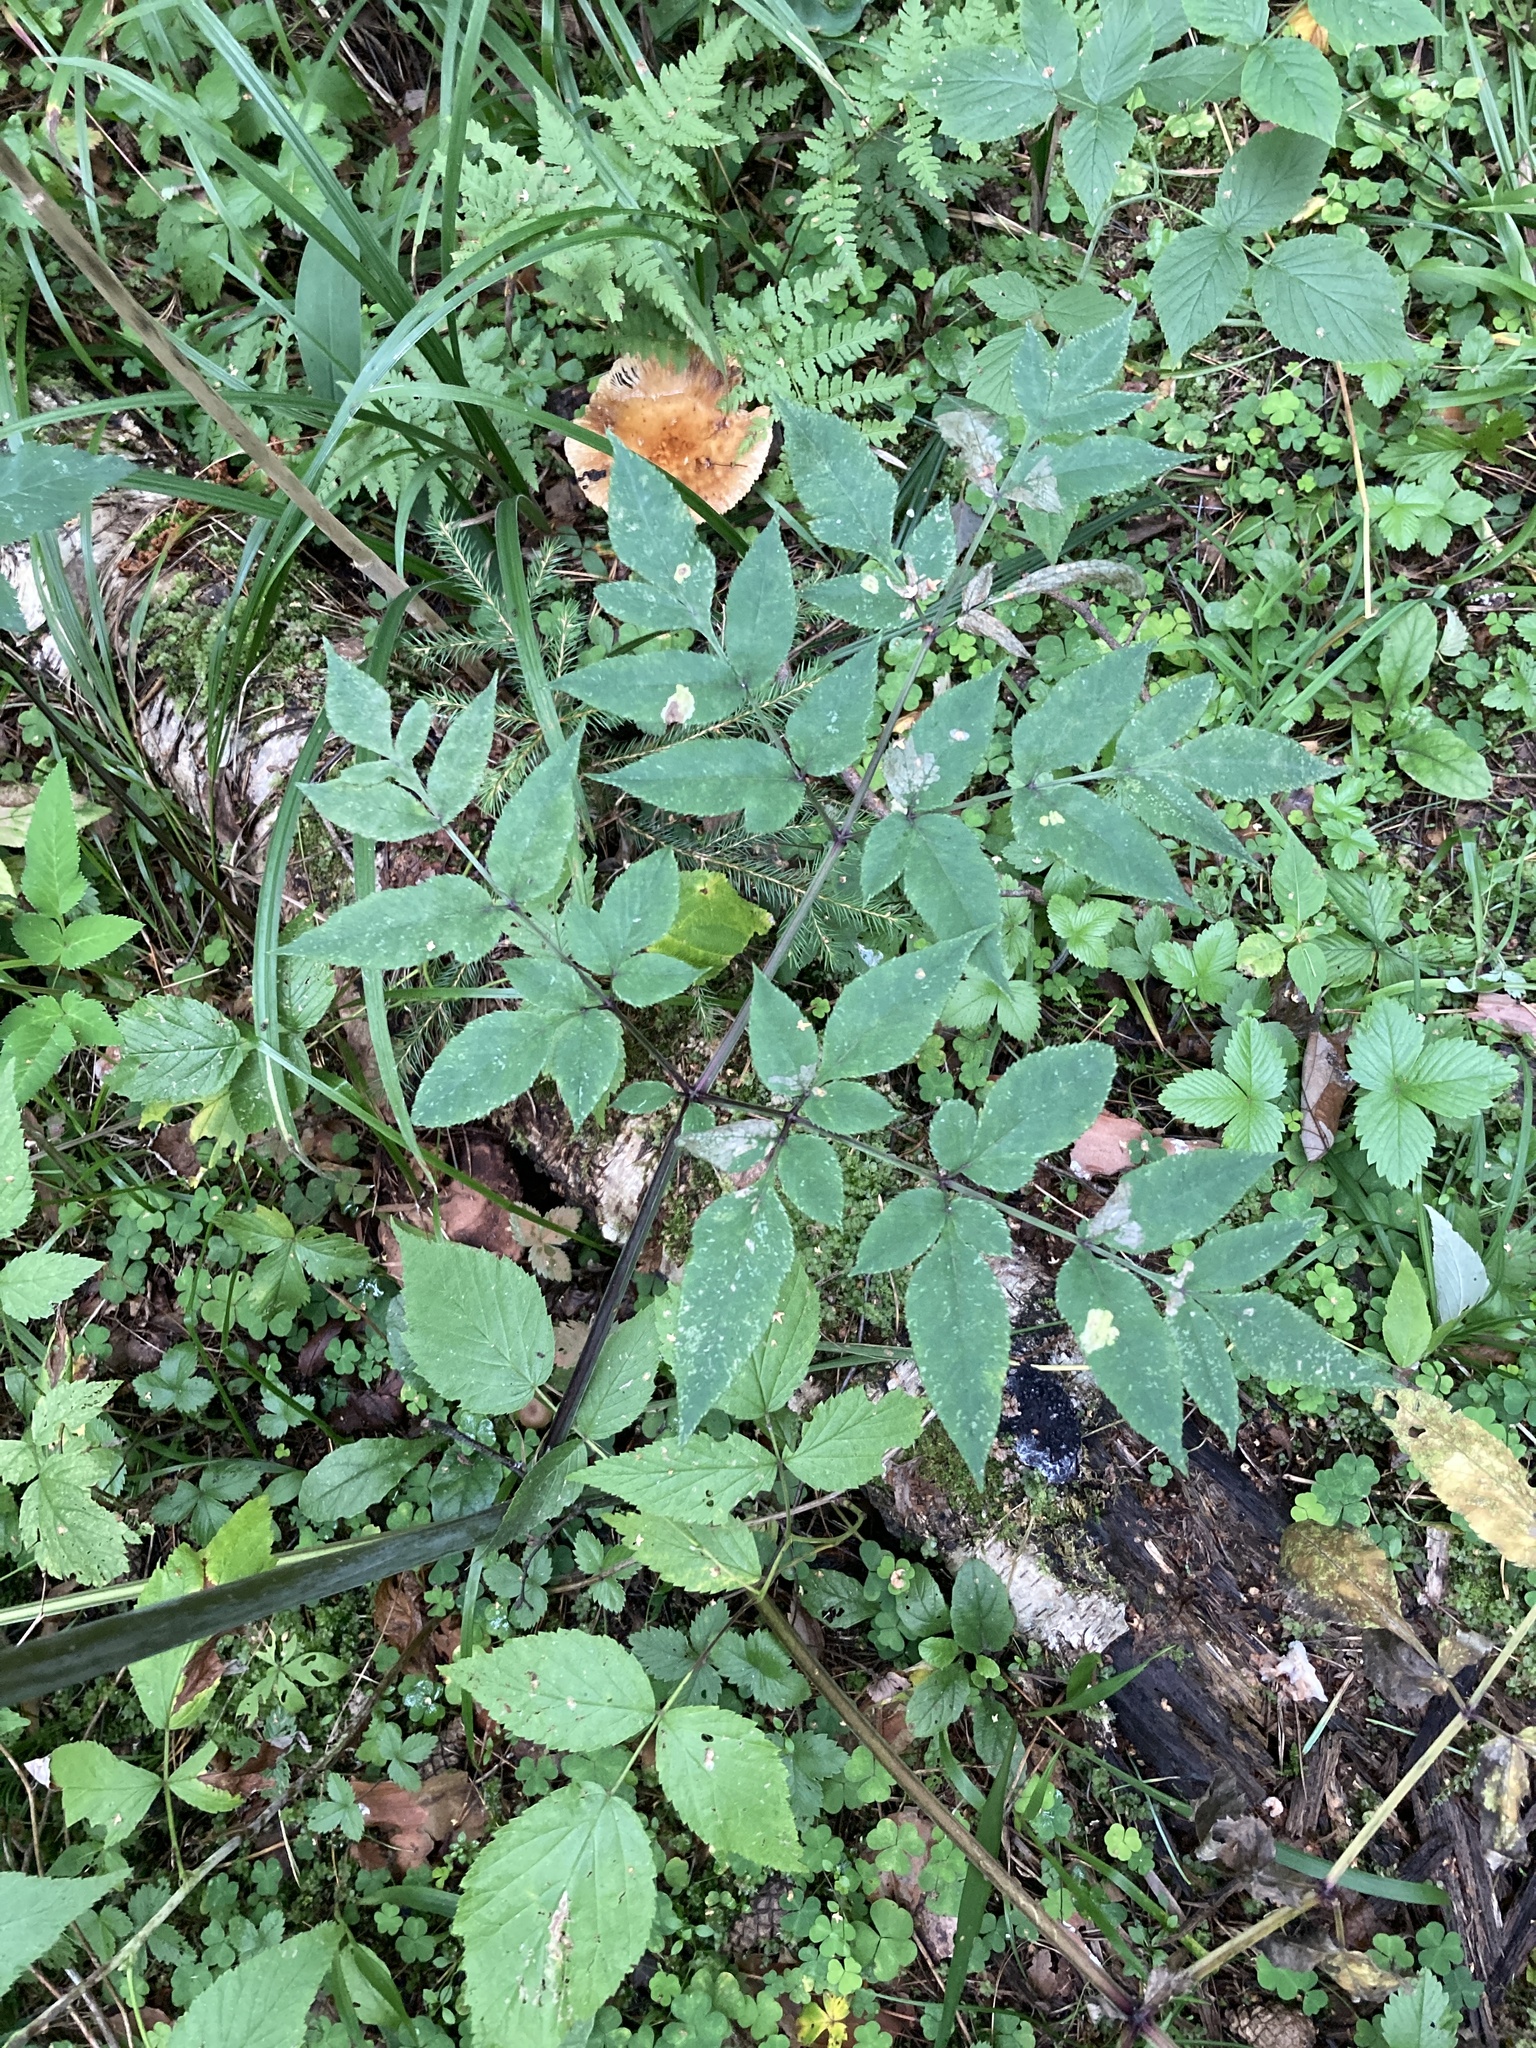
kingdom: Plantae
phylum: Tracheophyta
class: Magnoliopsida
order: Apiales
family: Apiaceae
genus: Angelica
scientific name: Angelica sylvestris
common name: Wild angelica
